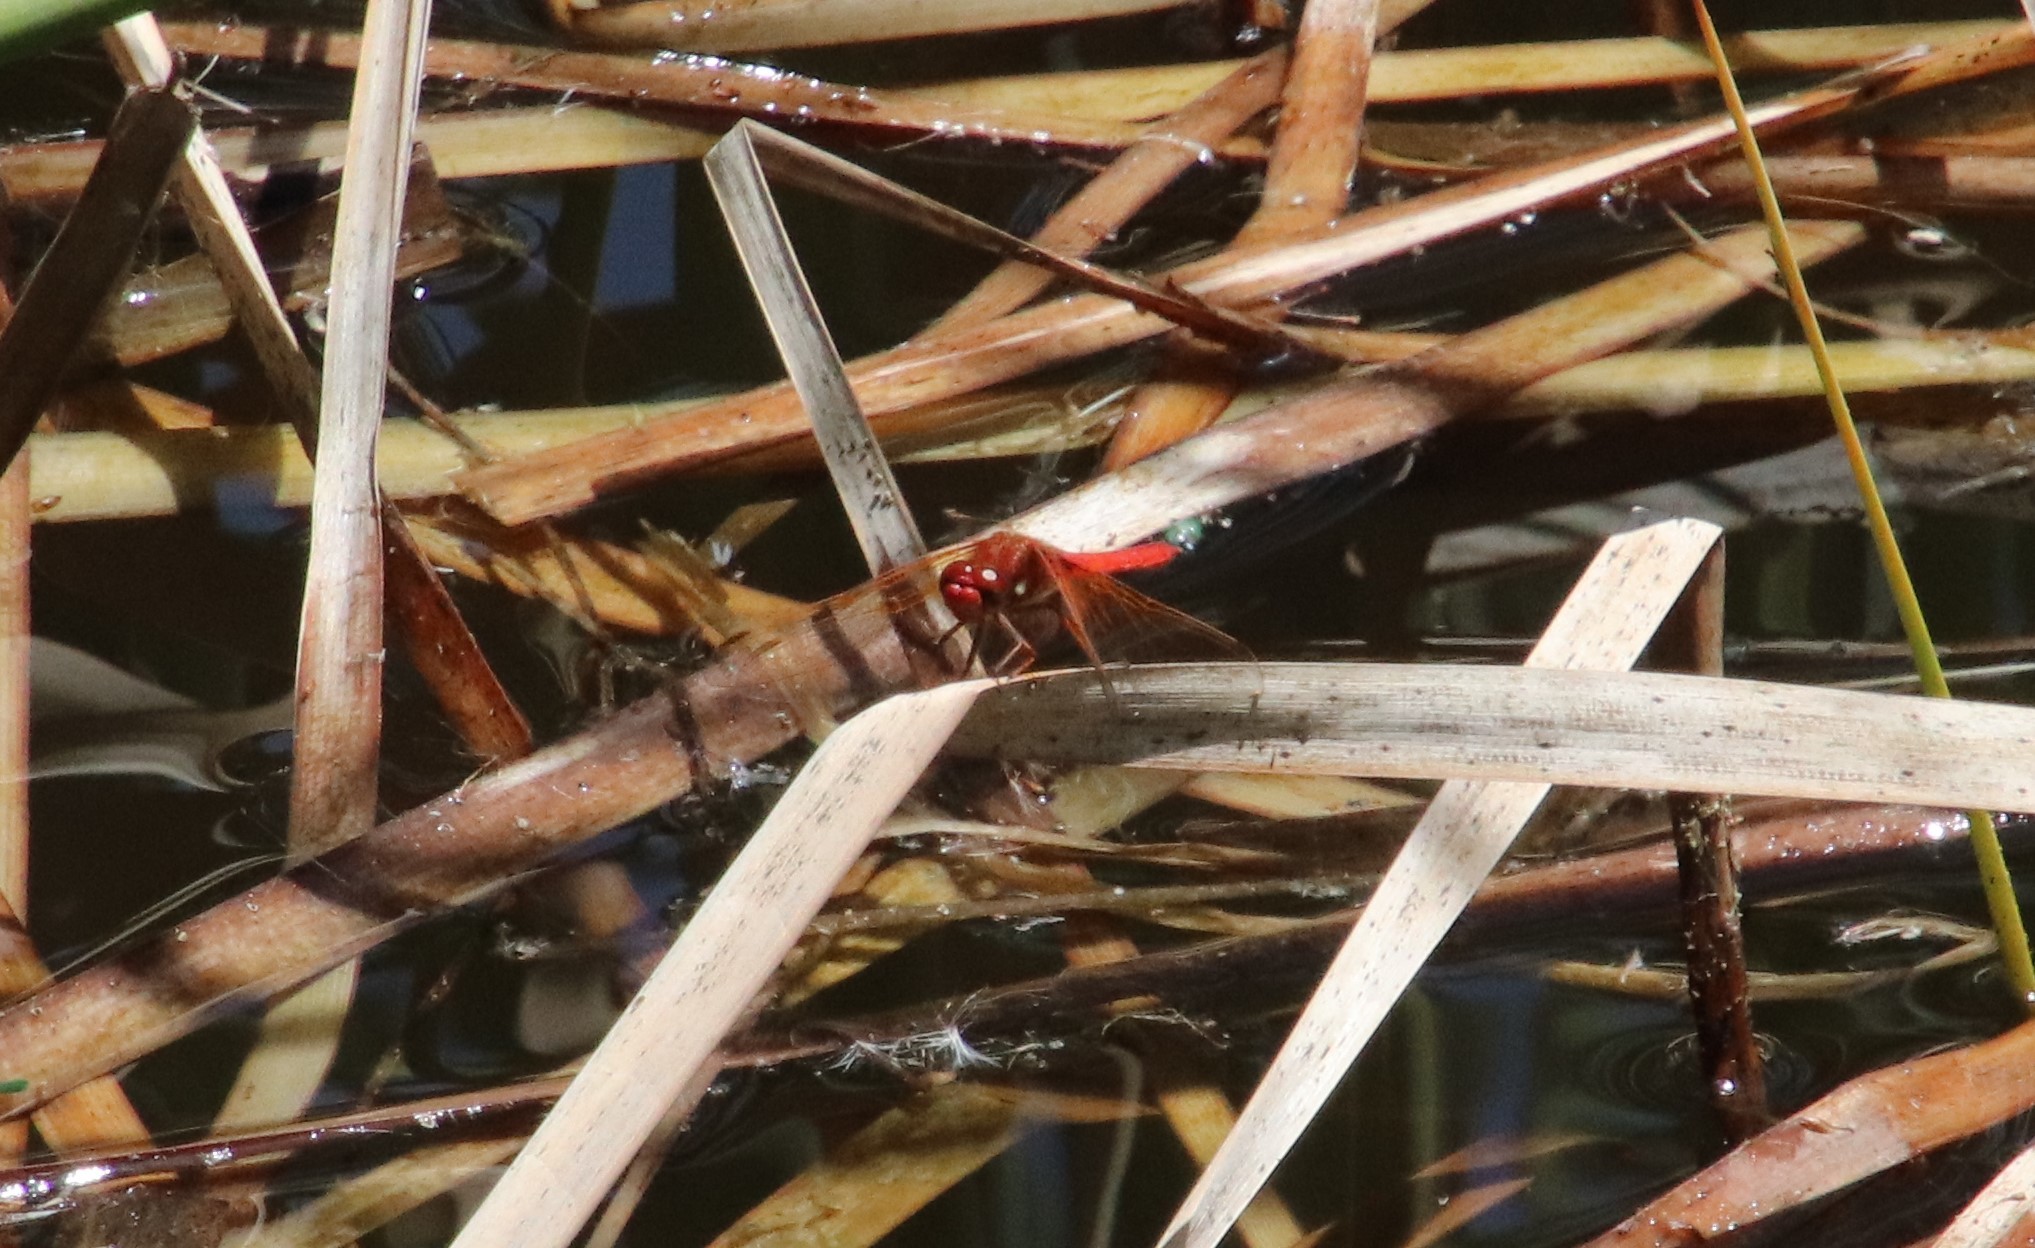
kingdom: Animalia
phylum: Arthropoda
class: Insecta
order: Odonata
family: Libellulidae
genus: Sympetrum
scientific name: Sympetrum illotum
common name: Cardinal meadowhawk
